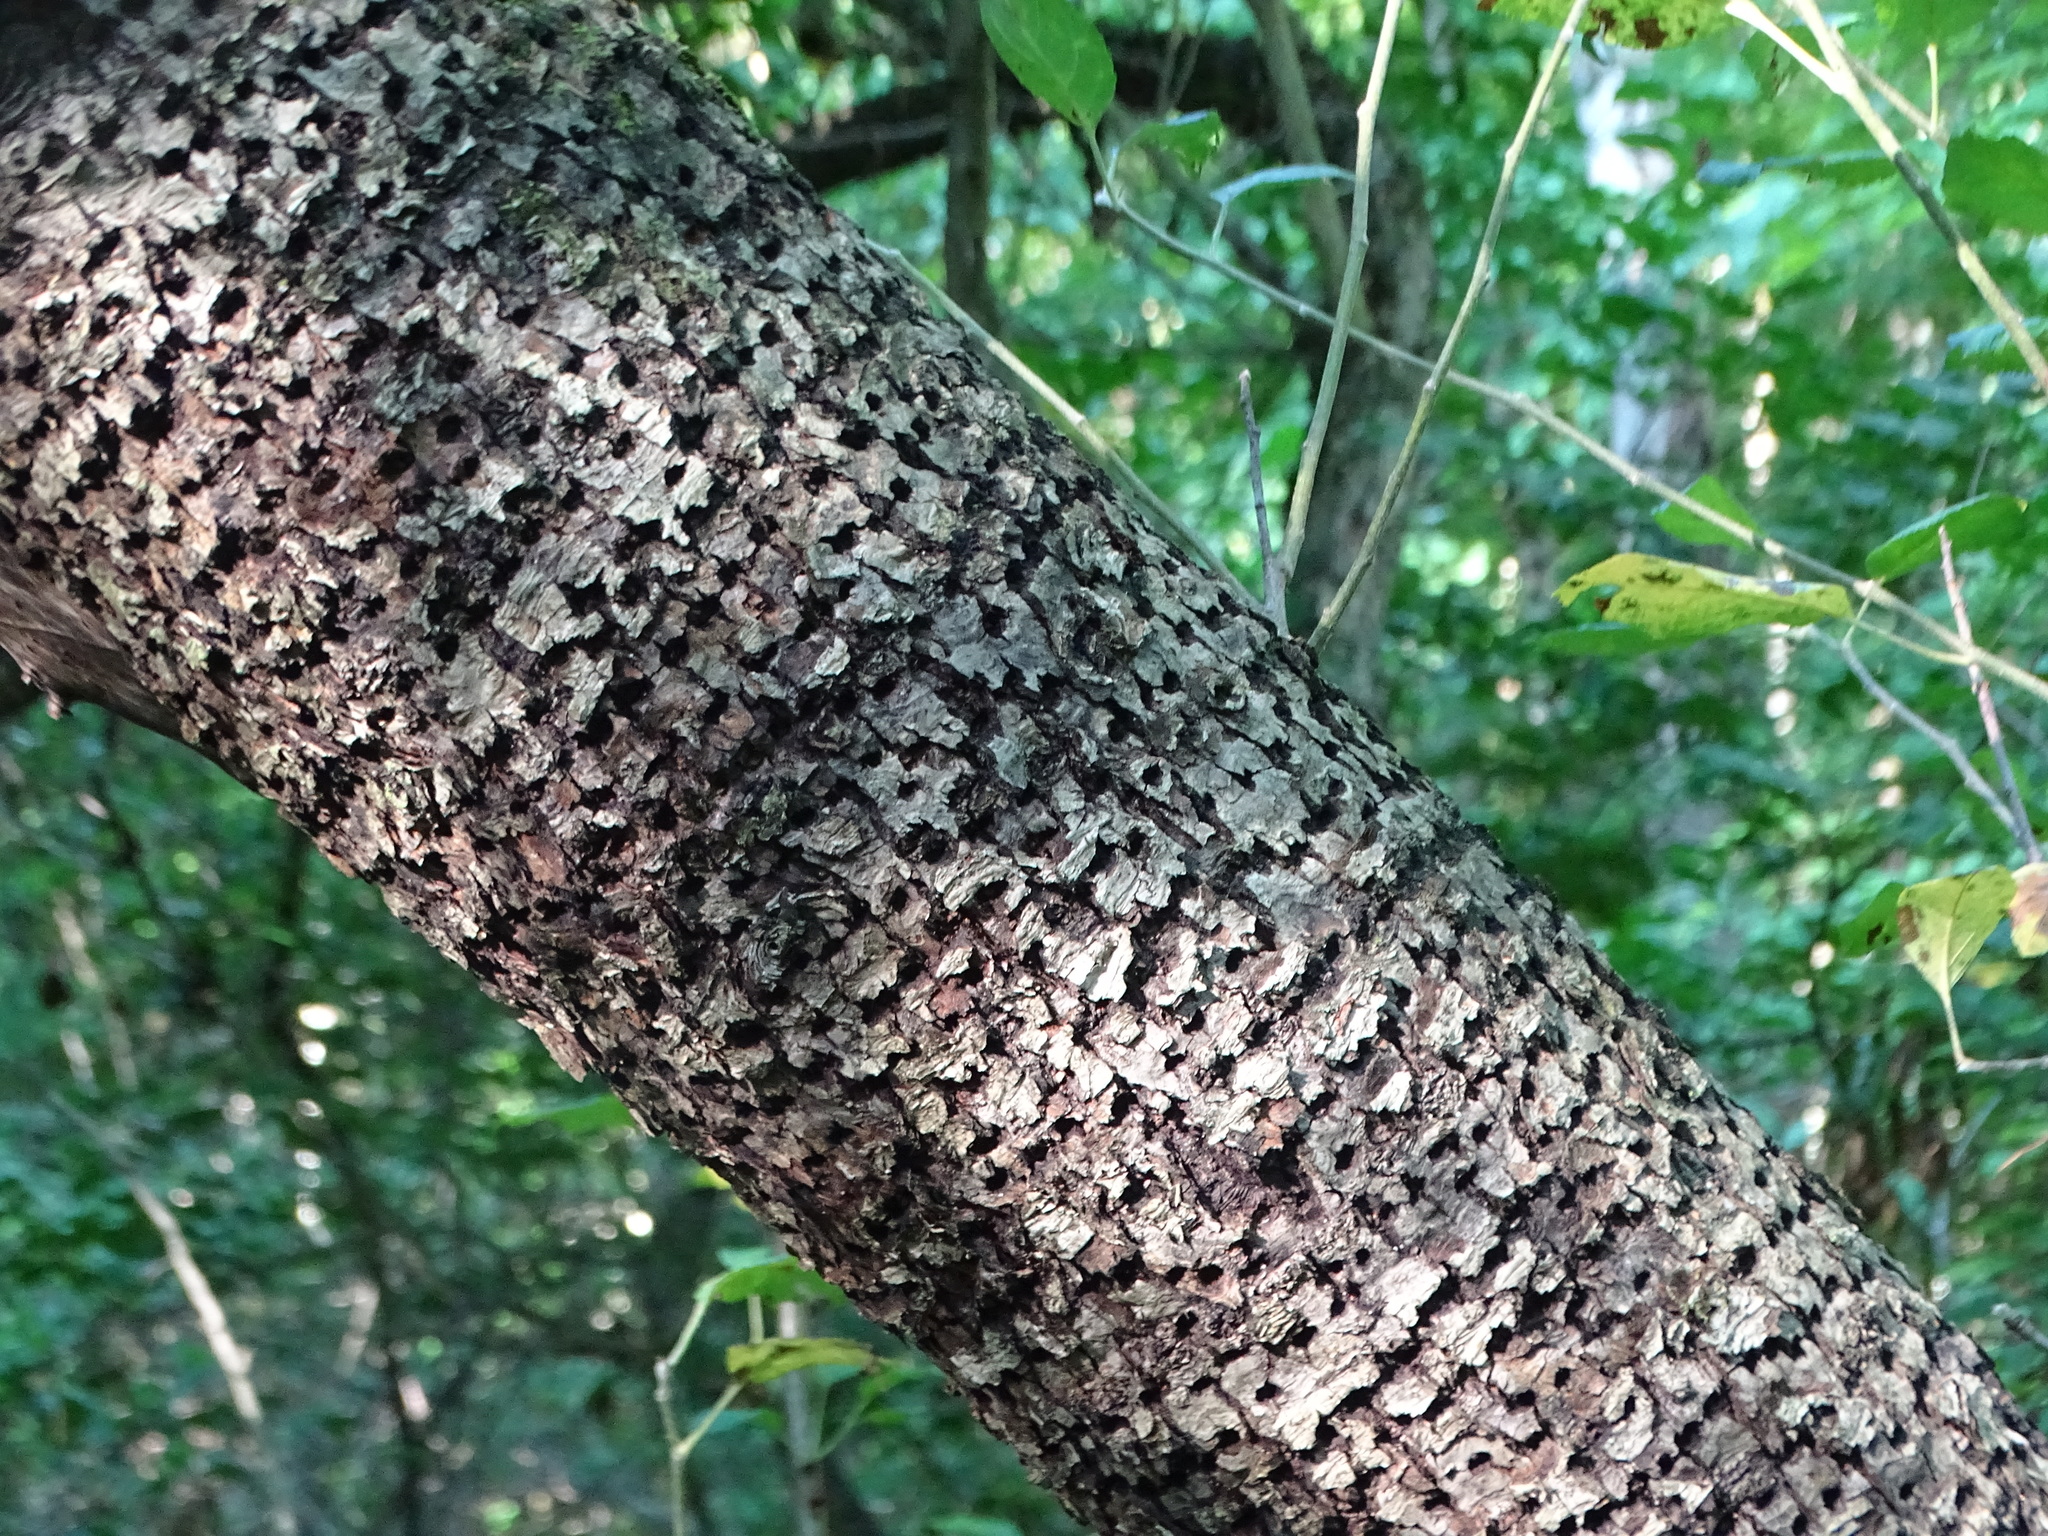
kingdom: Animalia
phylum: Chordata
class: Aves
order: Piciformes
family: Picidae
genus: Sphyrapicus
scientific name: Sphyrapicus varius
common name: Yellow-bellied sapsucker
